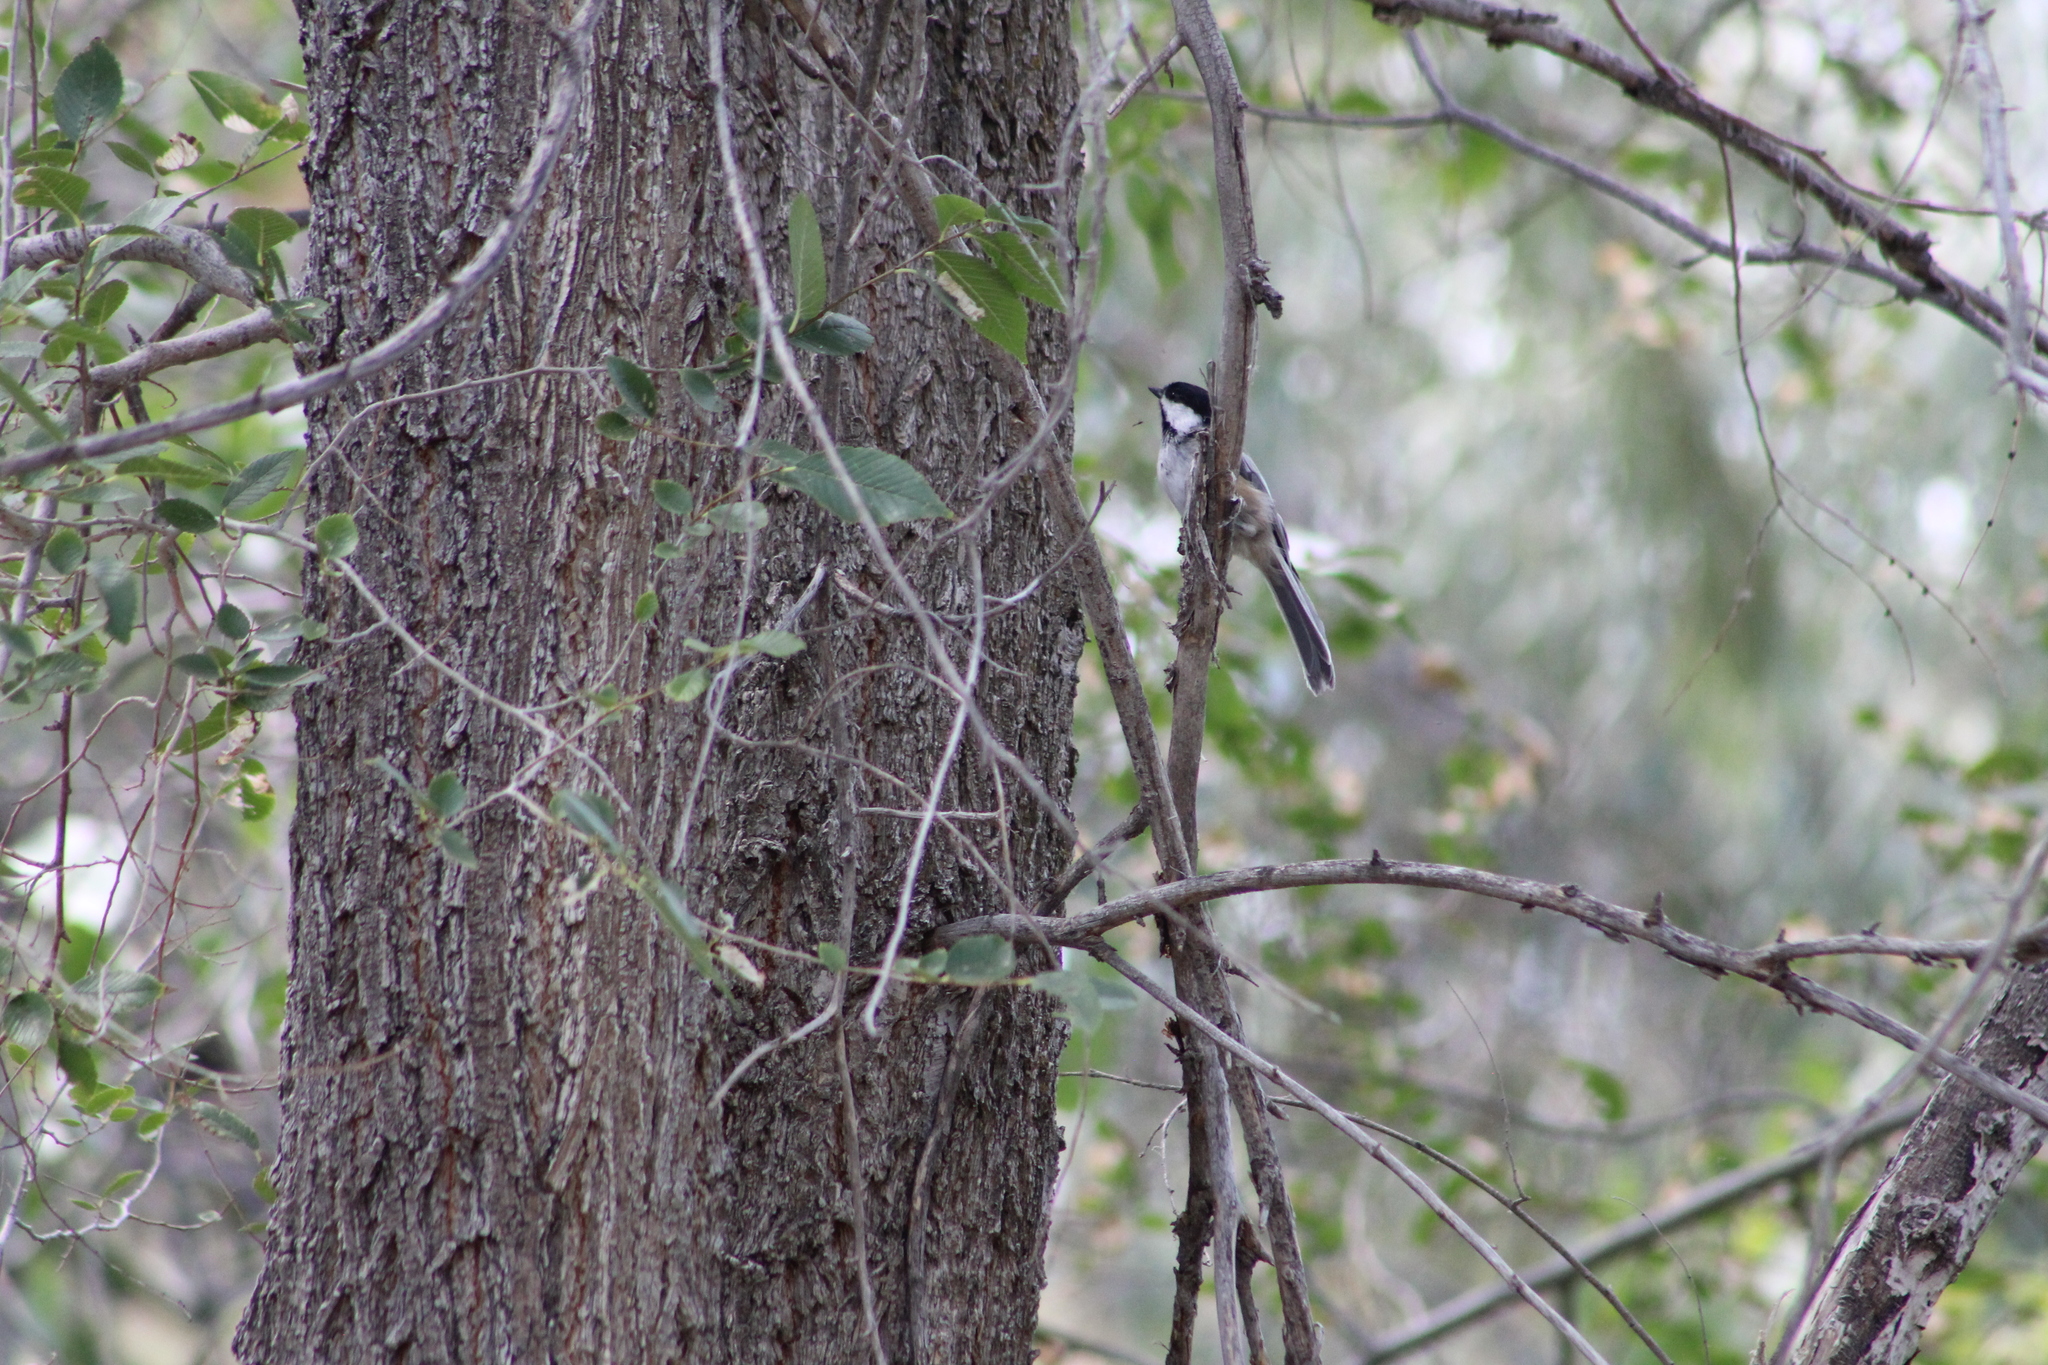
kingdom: Animalia
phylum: Chordata
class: Aves
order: Passeriformes
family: Paridae
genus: Poecile
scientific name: Poecile atricapillus
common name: Black-capped chickadee
